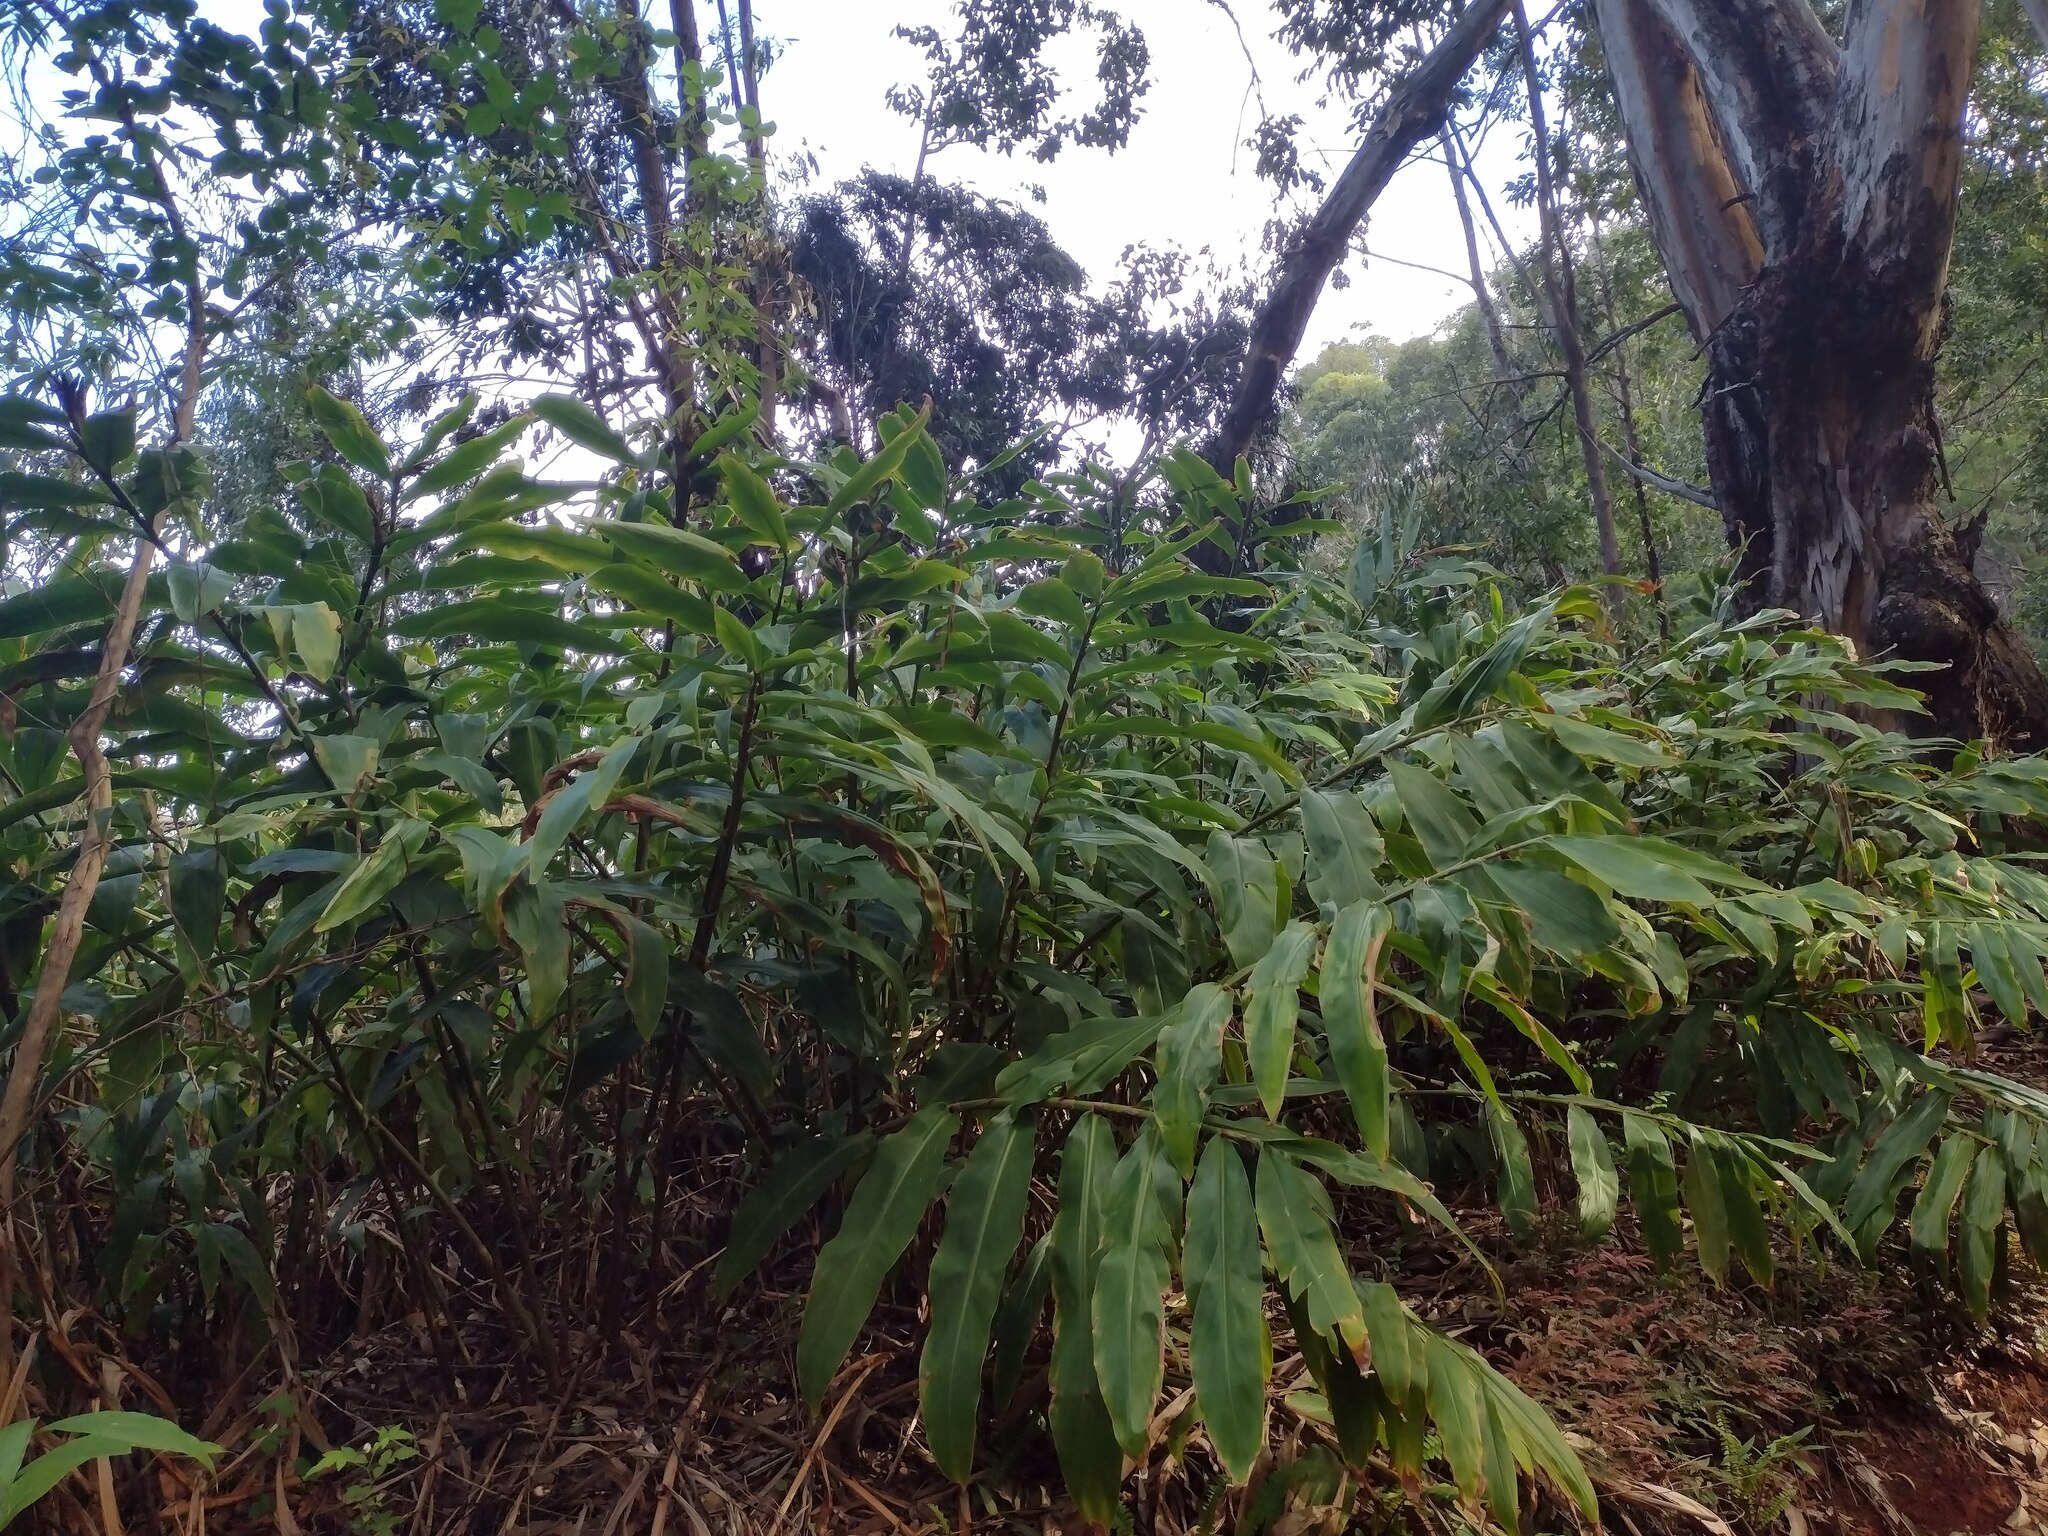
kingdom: Plantae
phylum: Tracheophyta
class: Liliopsida
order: Zingiberales
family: Zingiberaceae
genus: Hedychium
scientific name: Hedychium flavescens
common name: Yellow ginger
